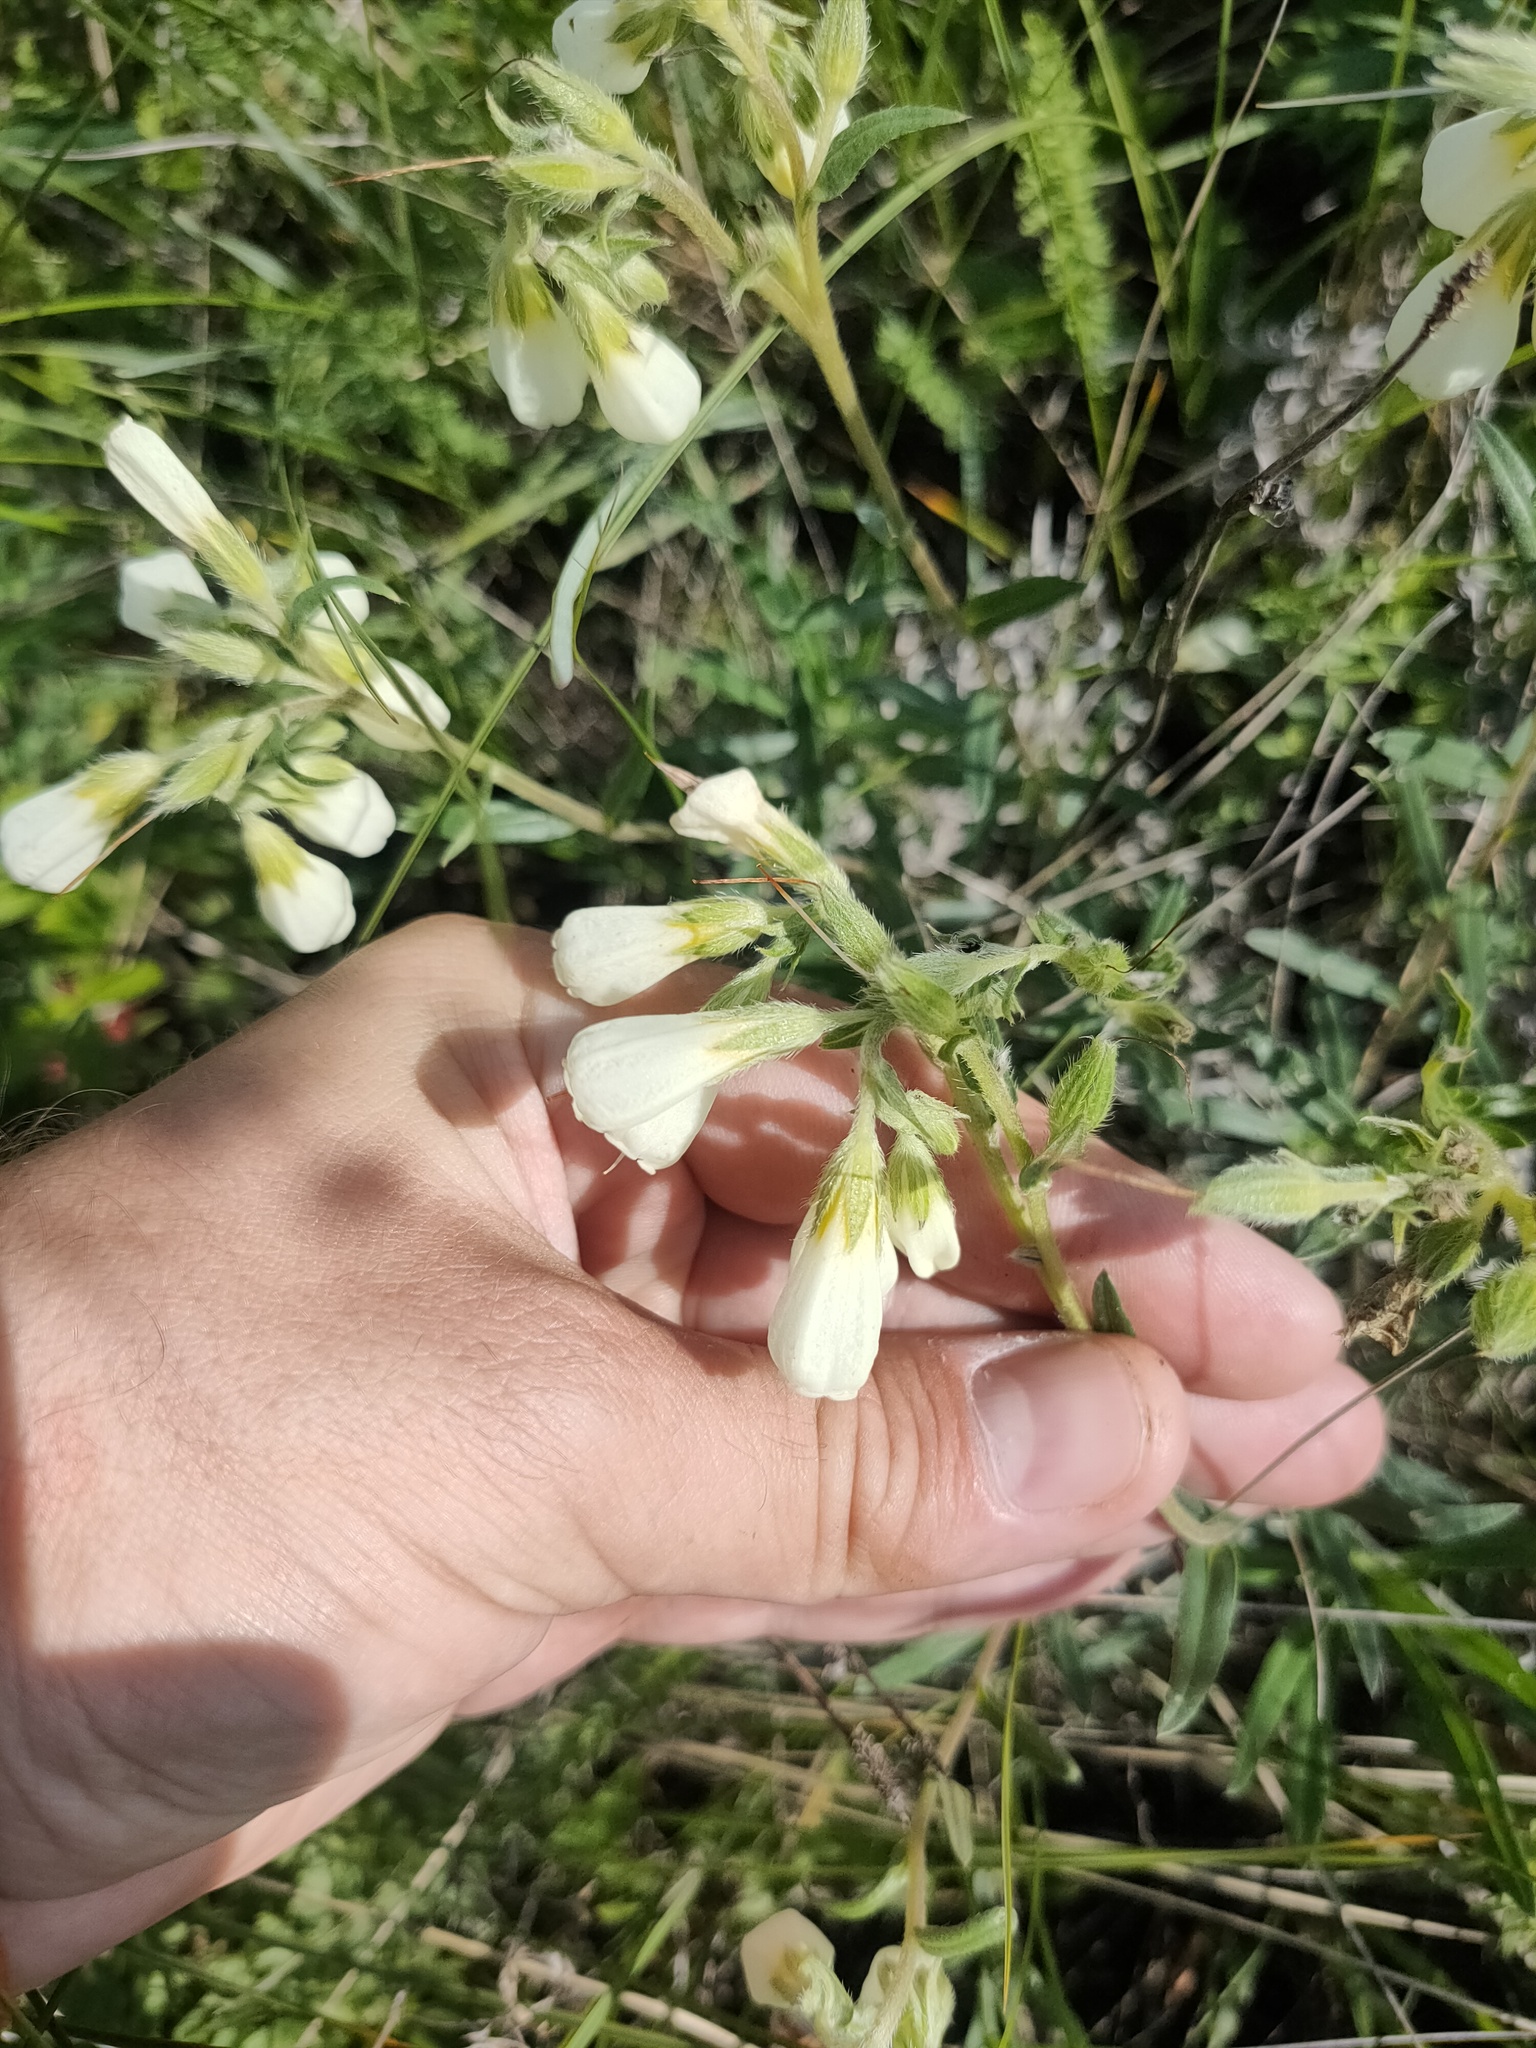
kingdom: Plantae
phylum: Tracheophyta
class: Magnoliopsida
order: Boraginales
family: Boraginaceae
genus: Onosma
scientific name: Onosma simplicissima
